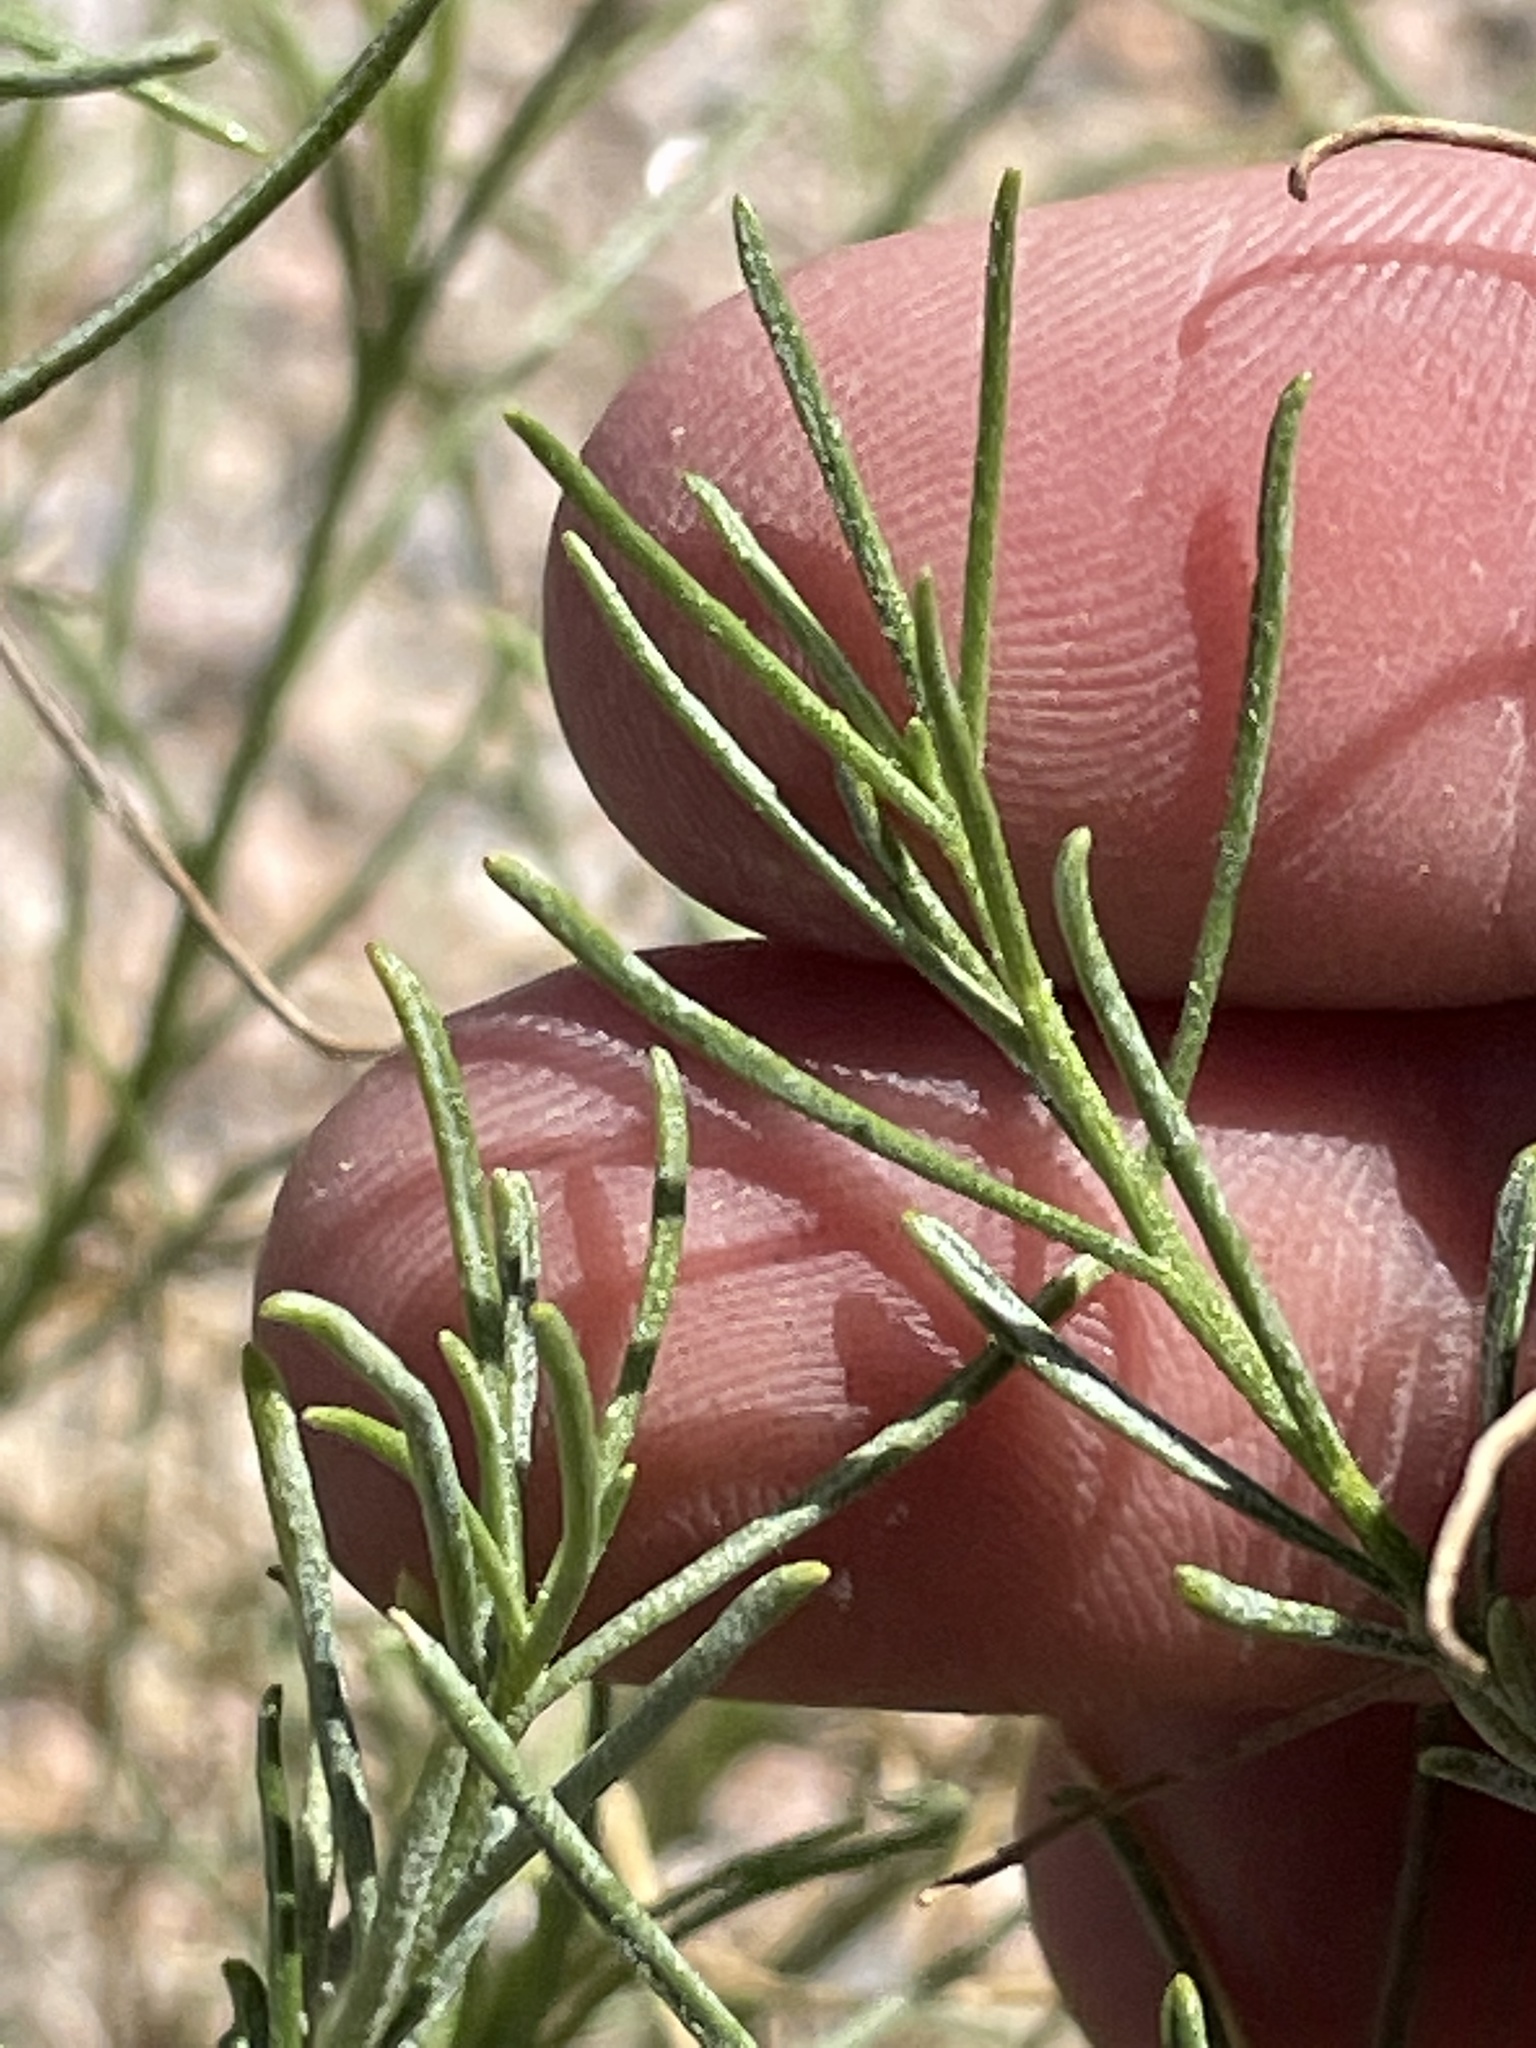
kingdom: Plantae
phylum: Tracheophyta
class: Magnoliopsida
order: Asterales
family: Asteraceae
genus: Ambrosia
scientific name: Ambrosia salsola
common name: Burrobrush
